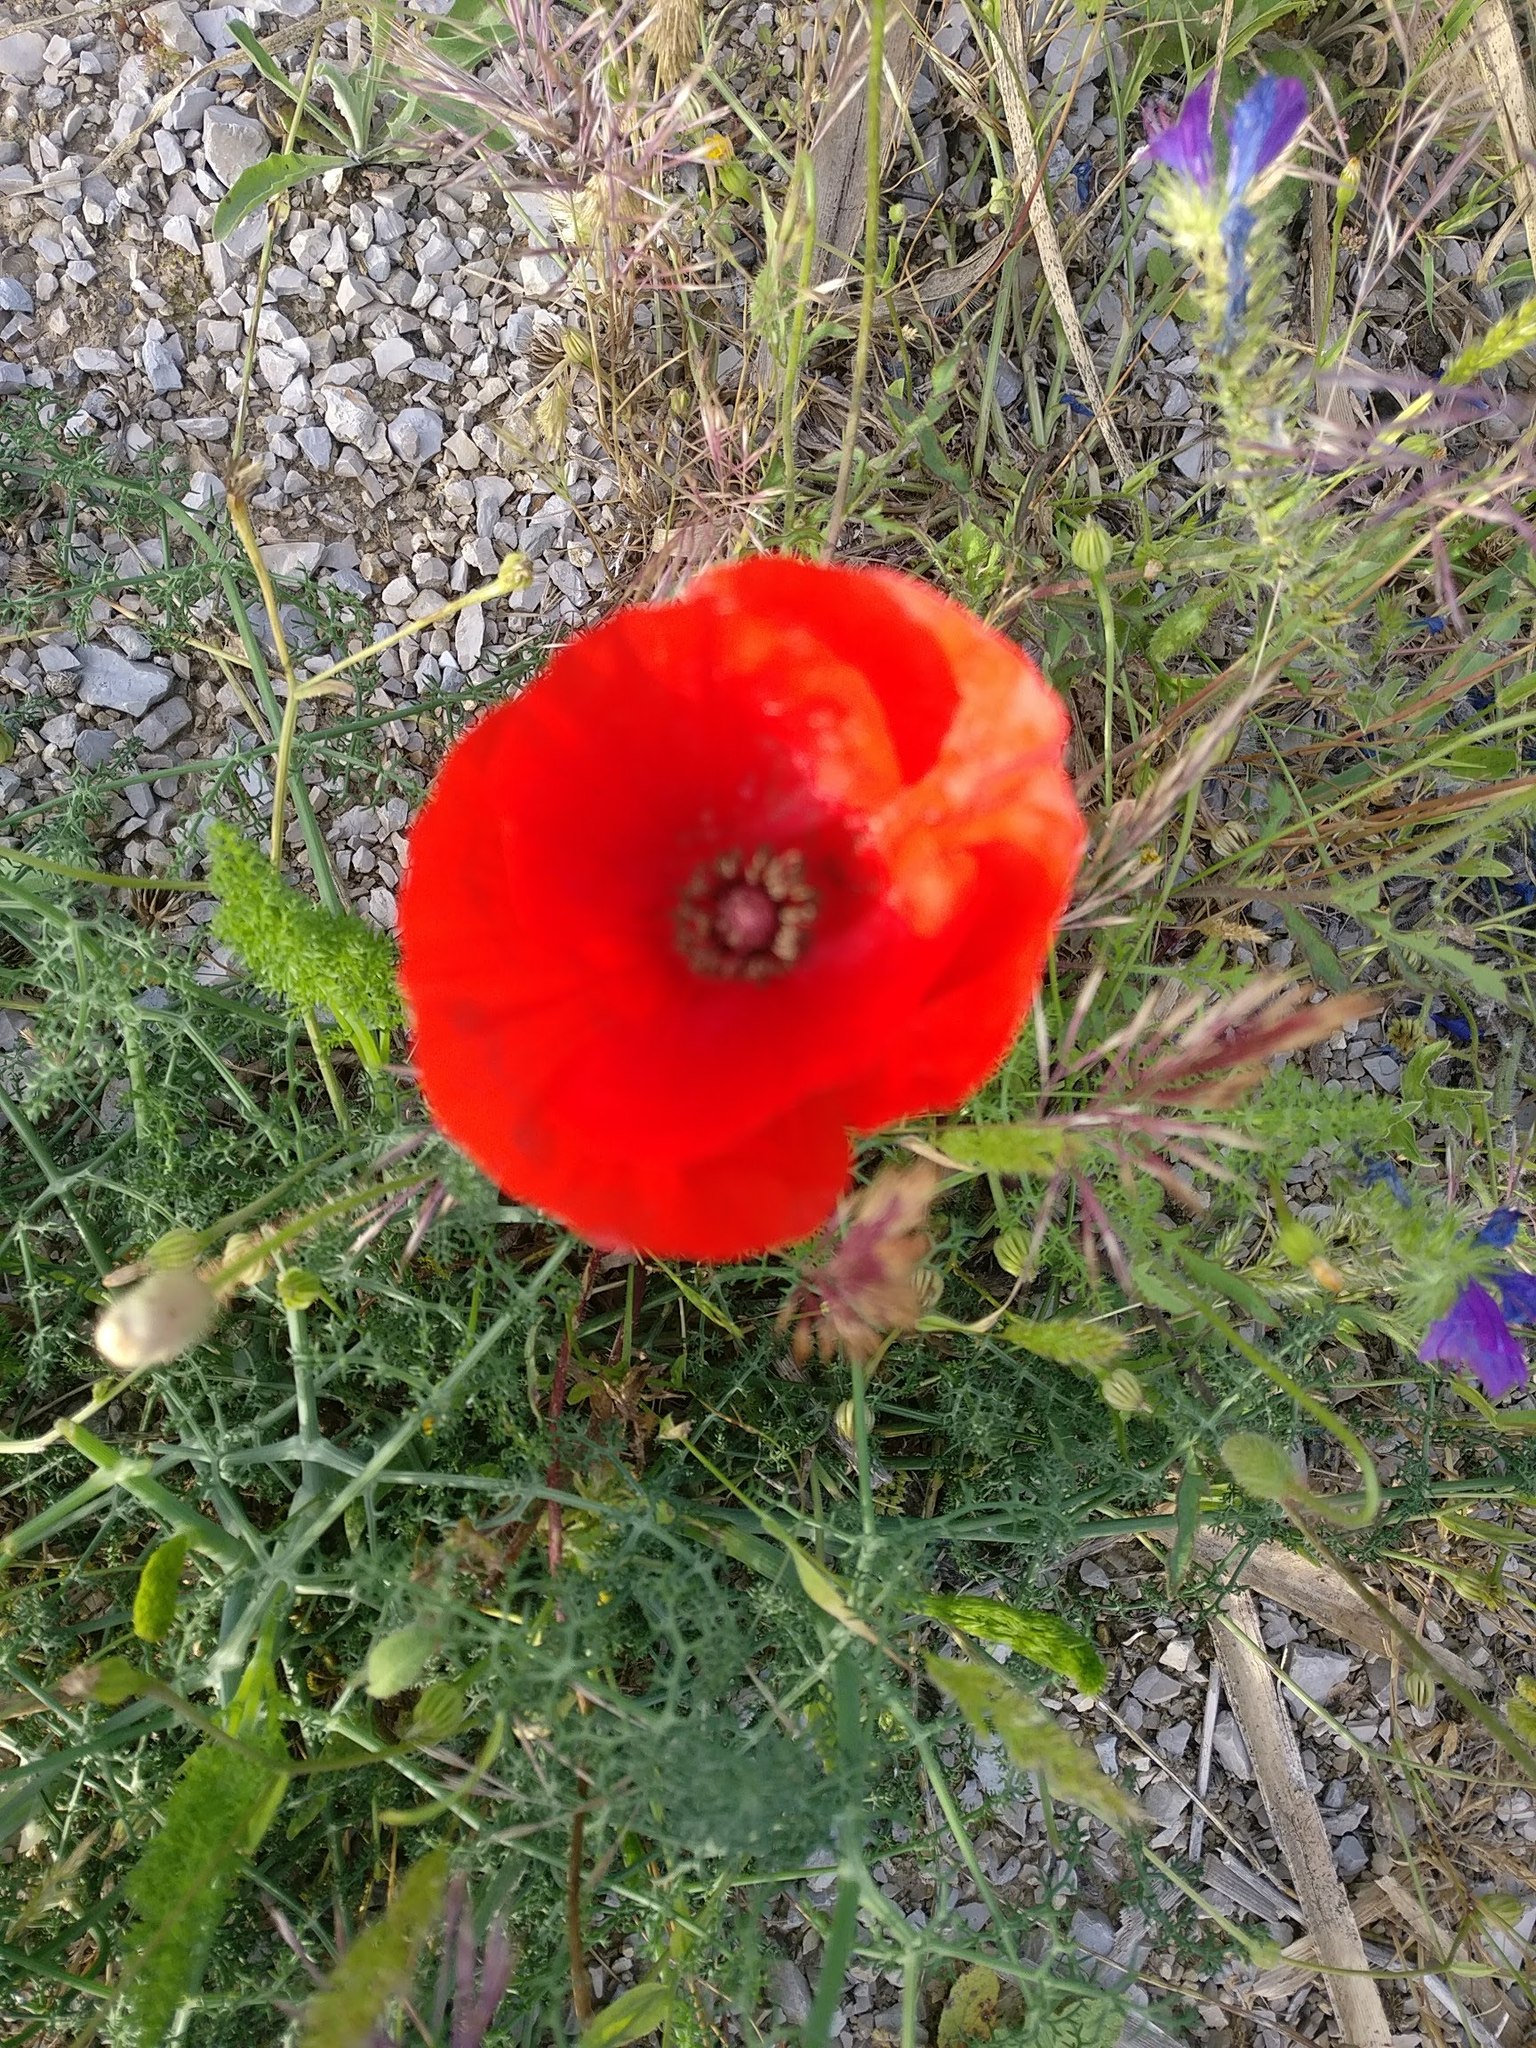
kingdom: Plantae
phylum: Tracheophyta
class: Magnoliopsida
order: Ranunculales
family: Papaveraceae
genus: Papaver
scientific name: Papaver rhoeas
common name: Corn poppy
